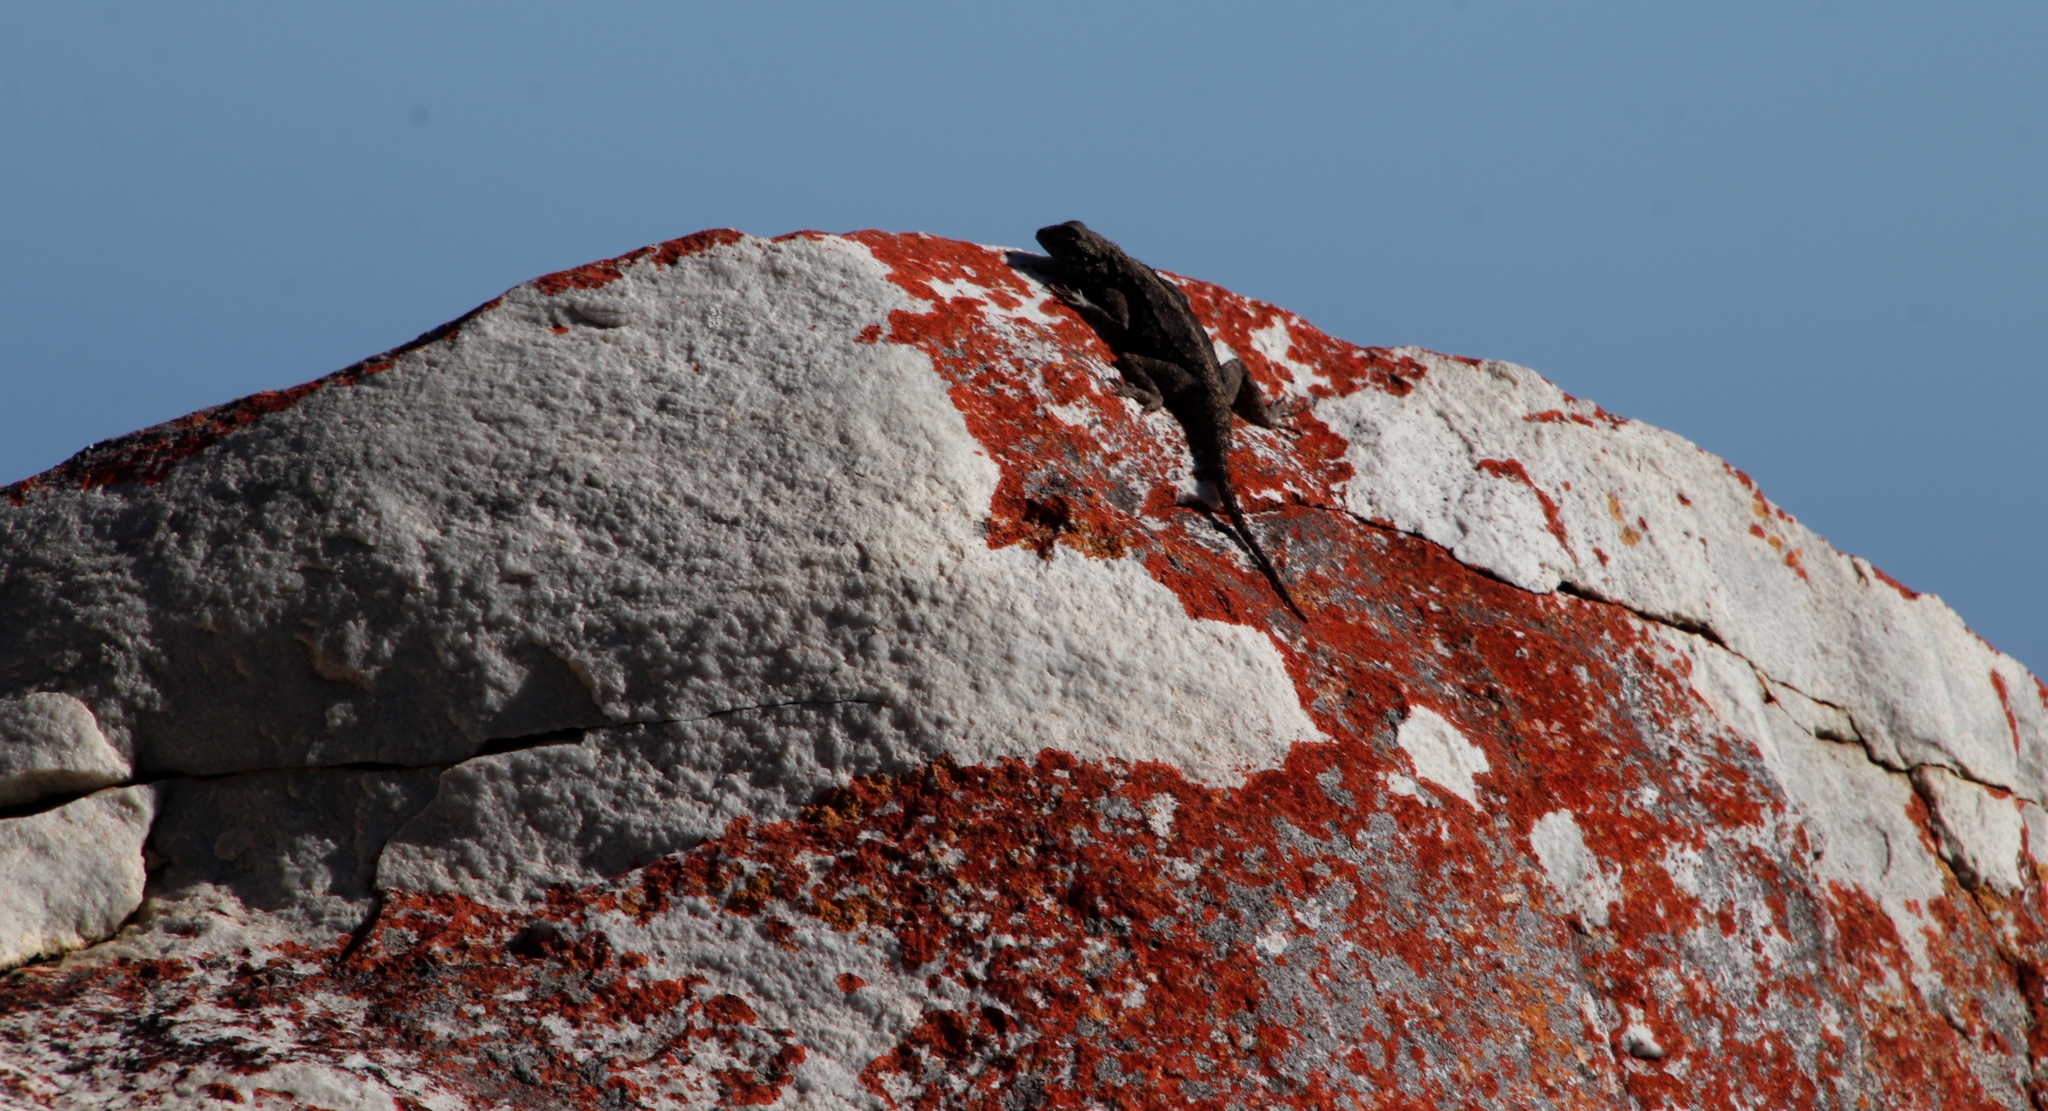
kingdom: Animalia
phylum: Chordata
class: Squamata
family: Agamidae
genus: Agama
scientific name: Agama atra
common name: Southern african rock agama
